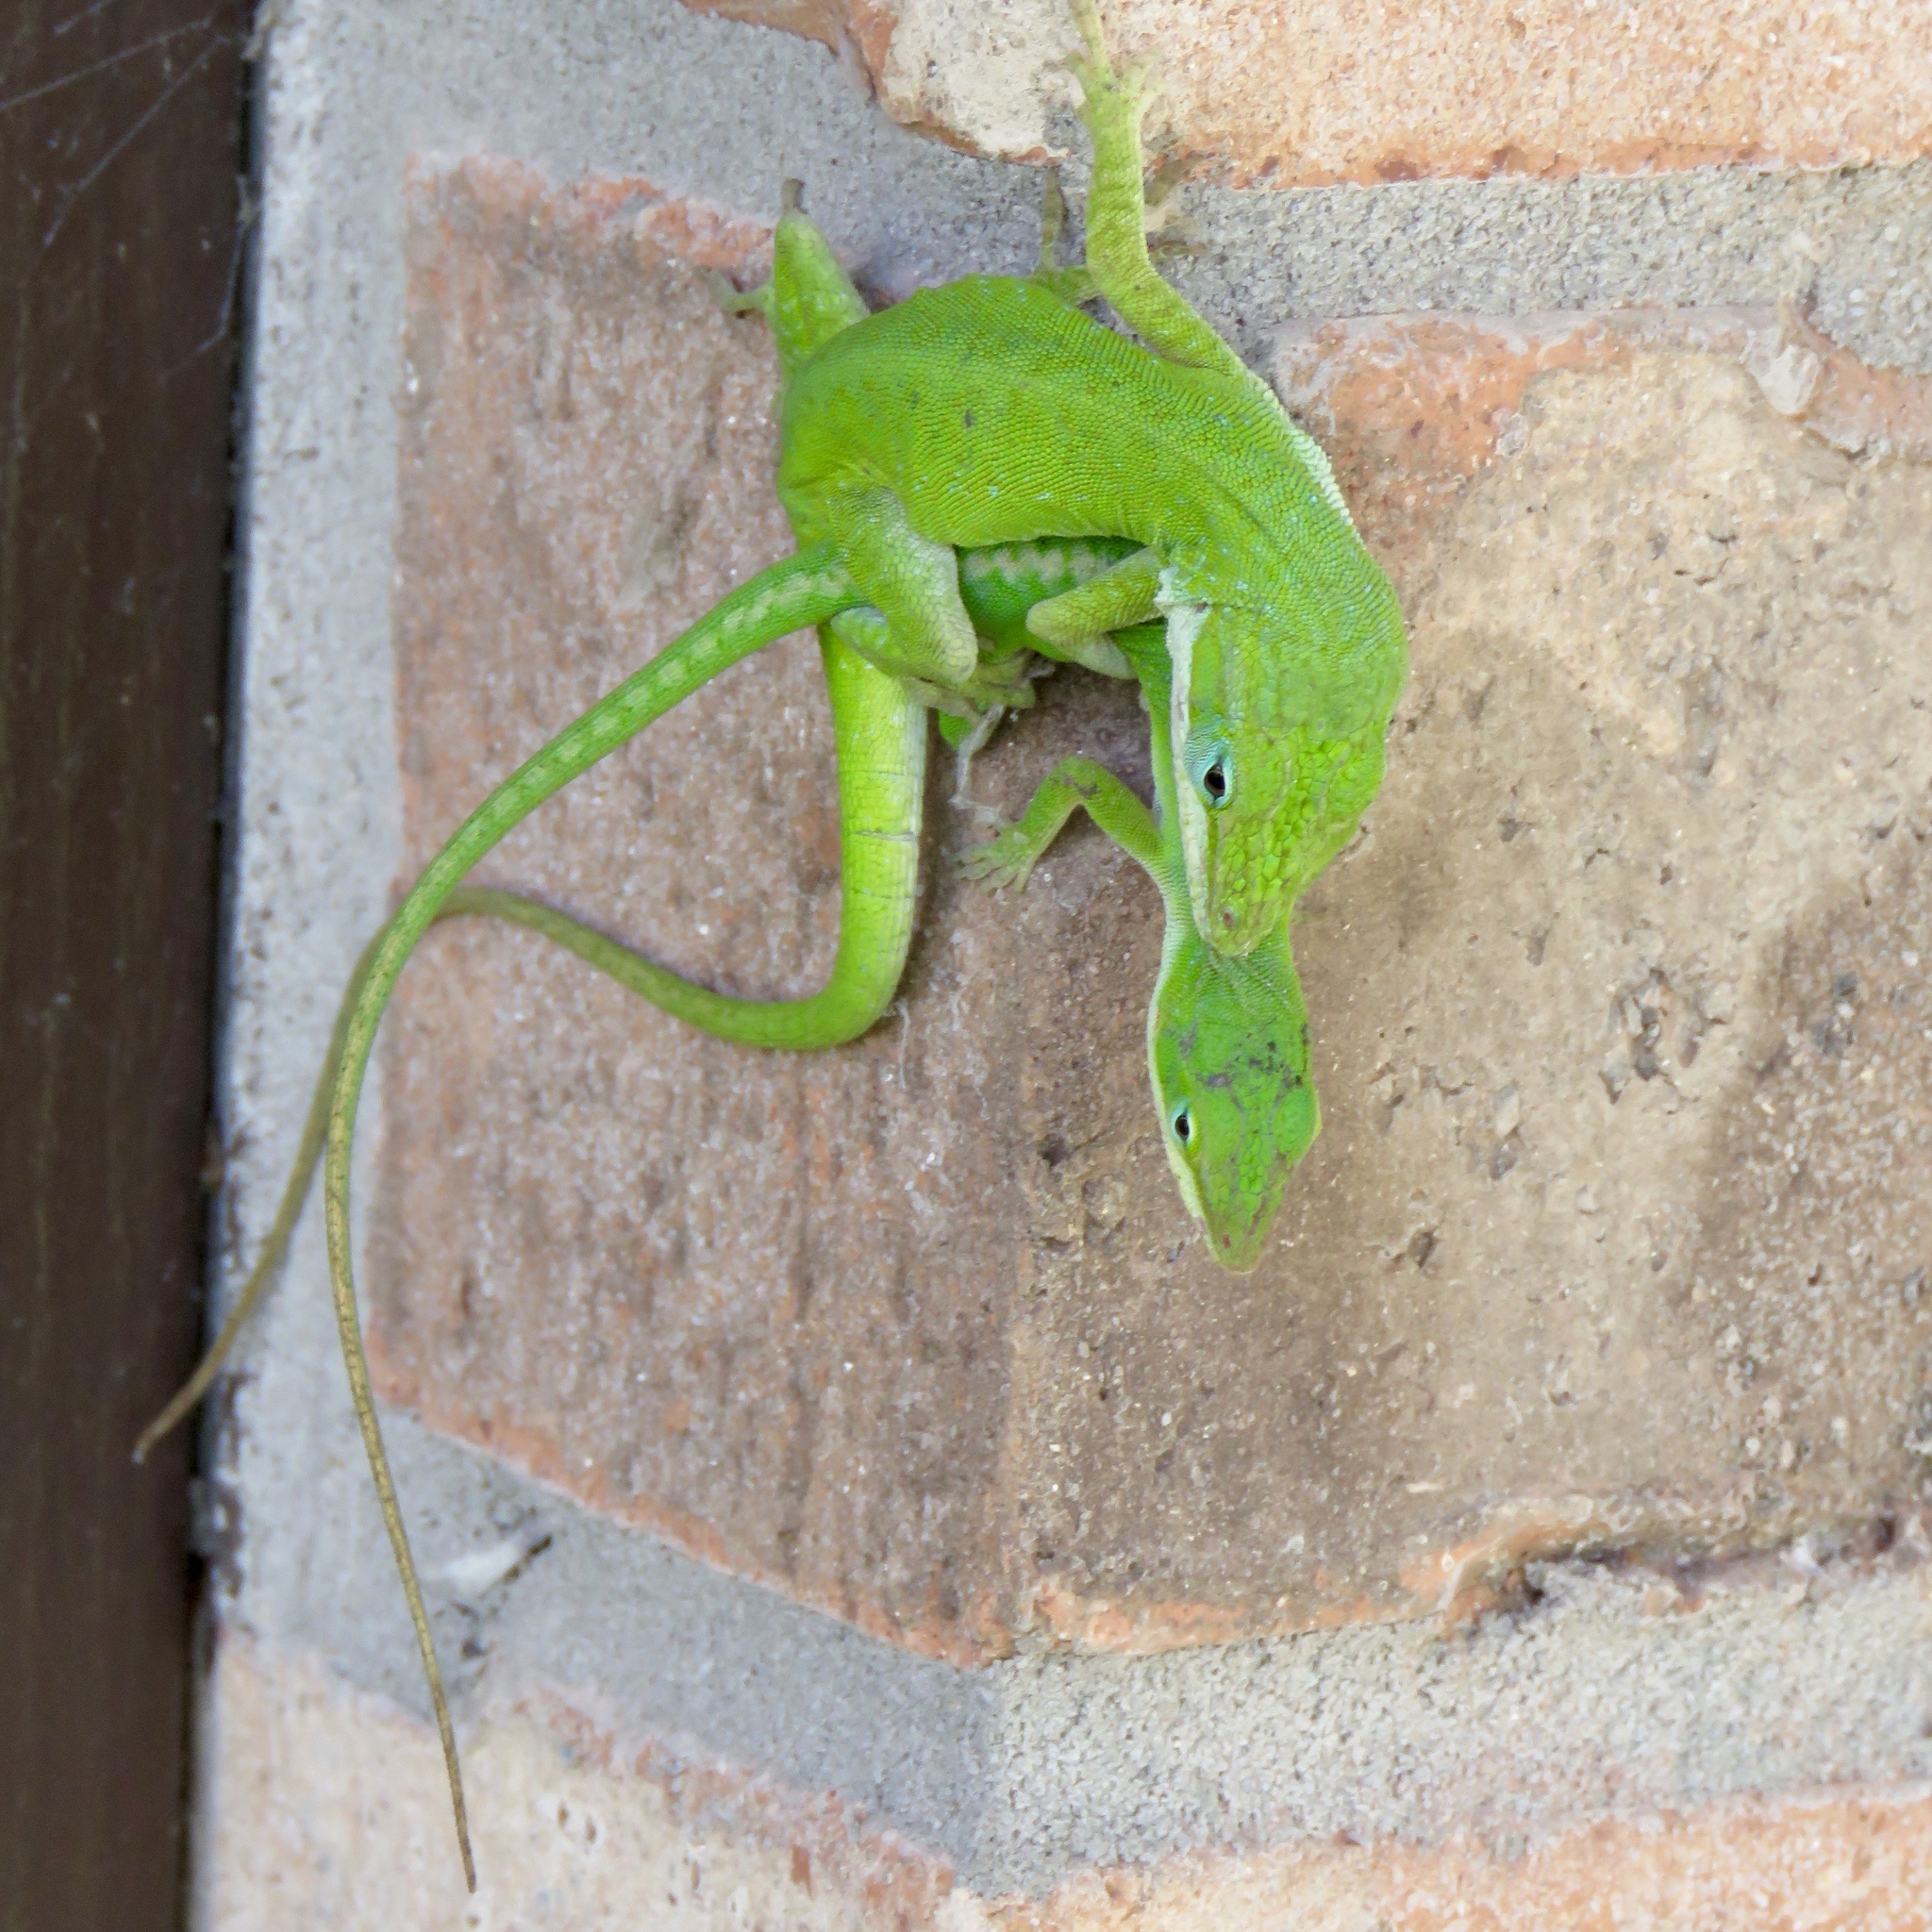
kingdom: Animalia
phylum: Chordata
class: Squamata
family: Dactyloidae
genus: Anolis
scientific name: Anolis carolinensis
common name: Green anole
